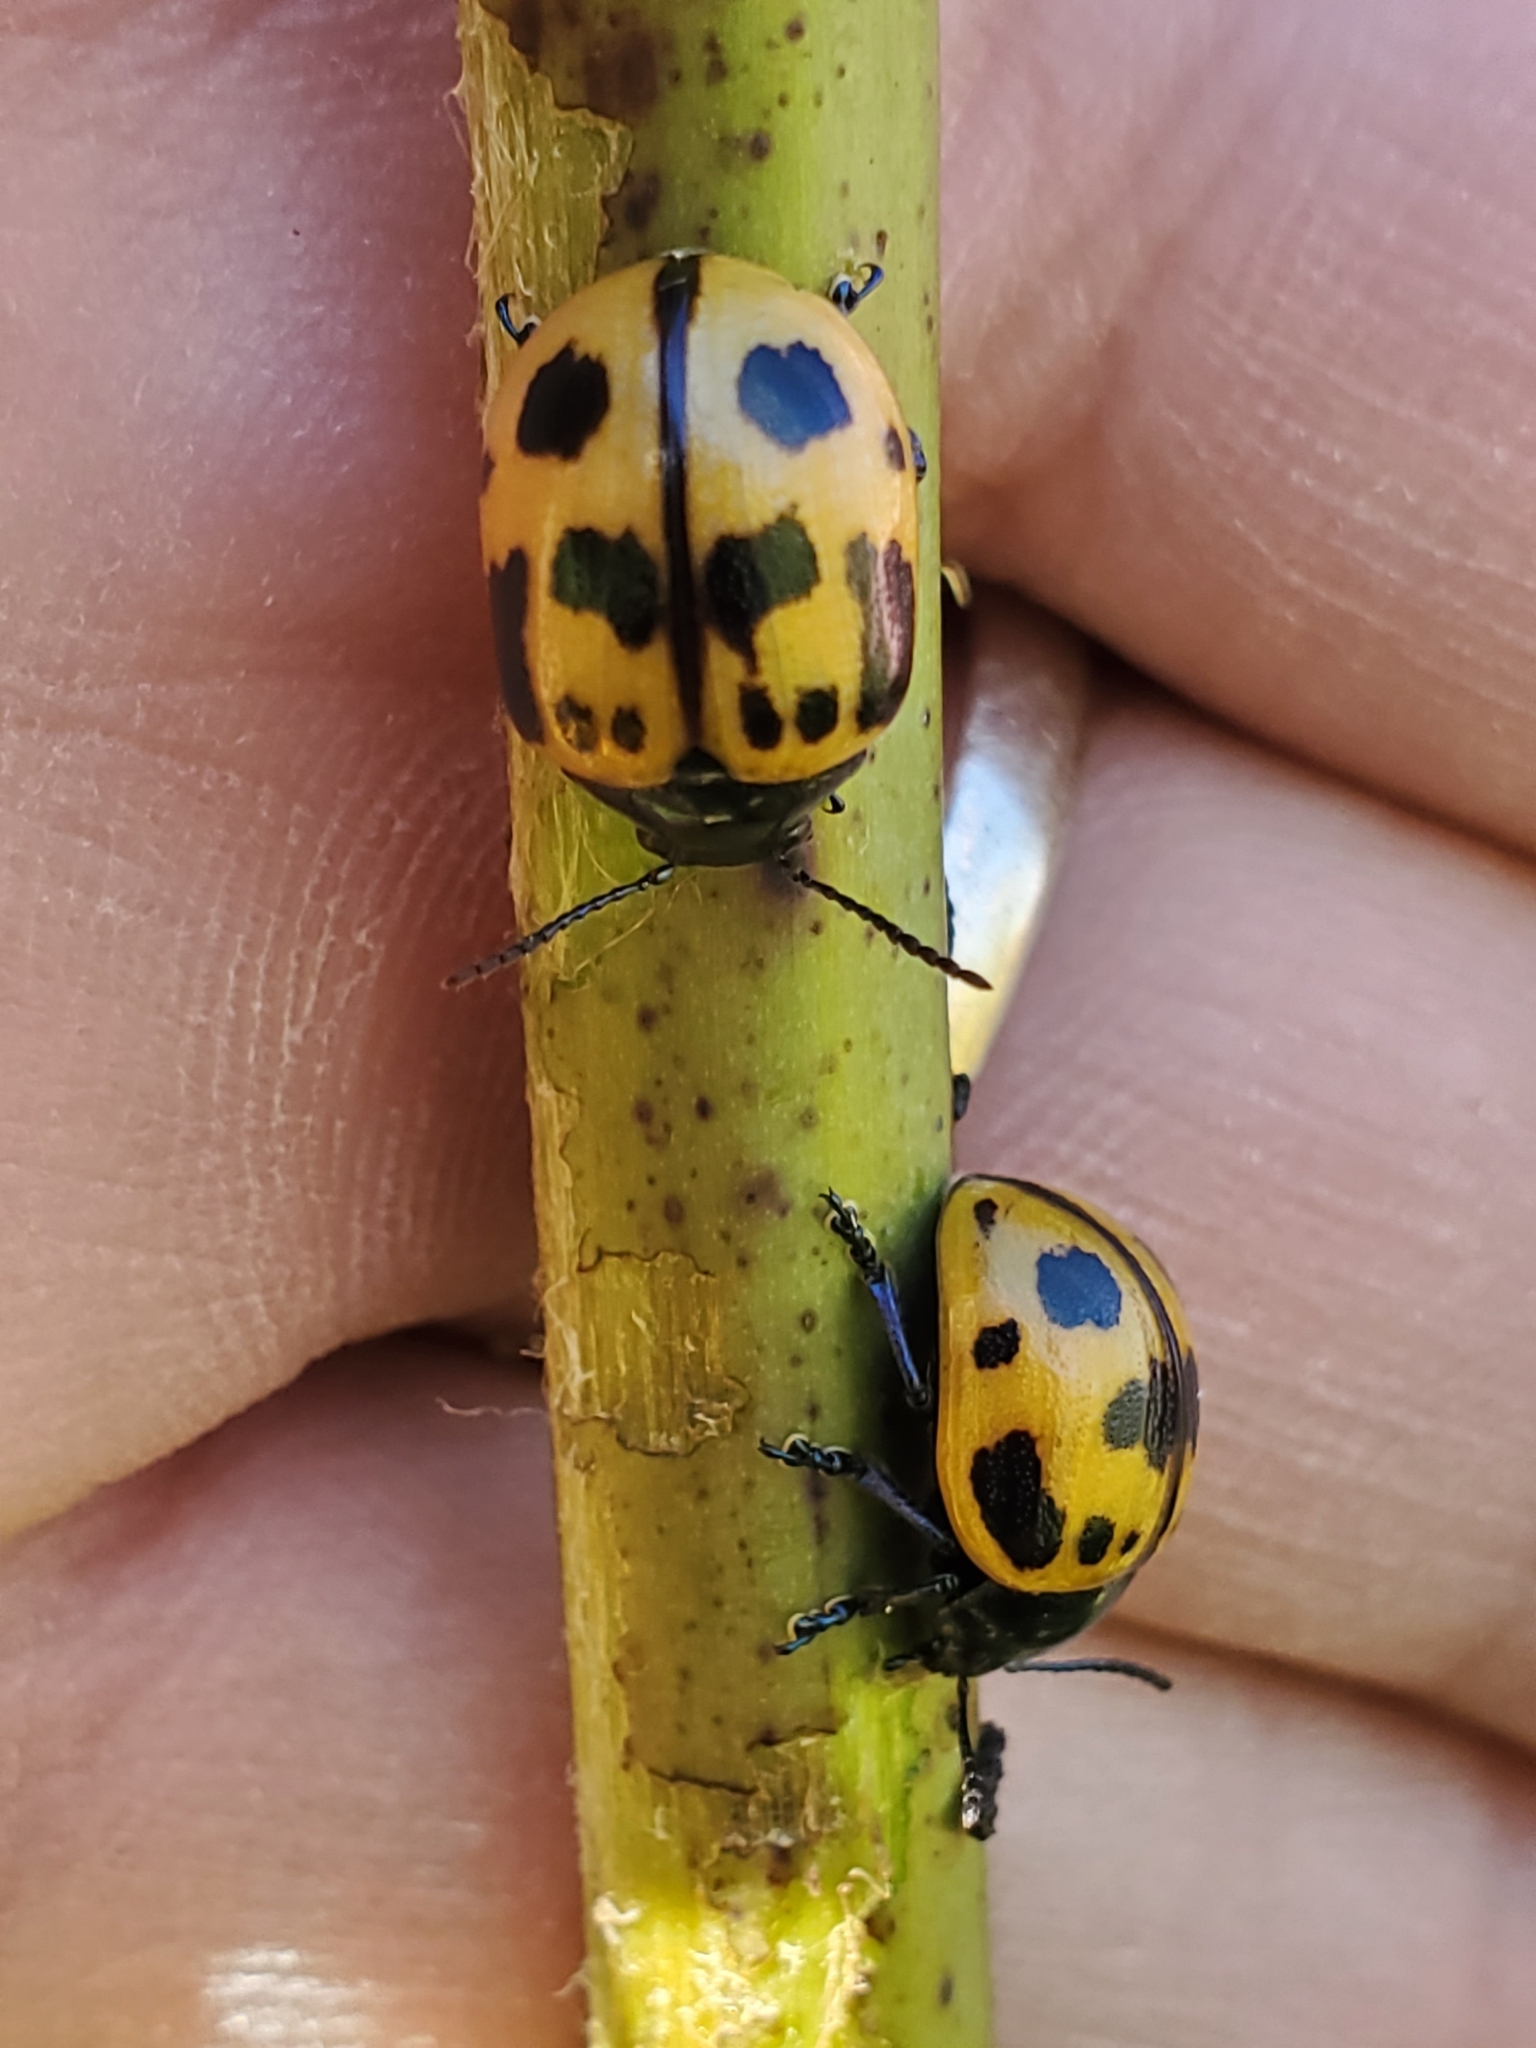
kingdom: Animalia
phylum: Arthropoda
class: Insecta
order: Coleoptera
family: Chrysomelidae
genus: Labidomera
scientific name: Labidomera clivicollis
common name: Swamp milkweed leaf beetle
